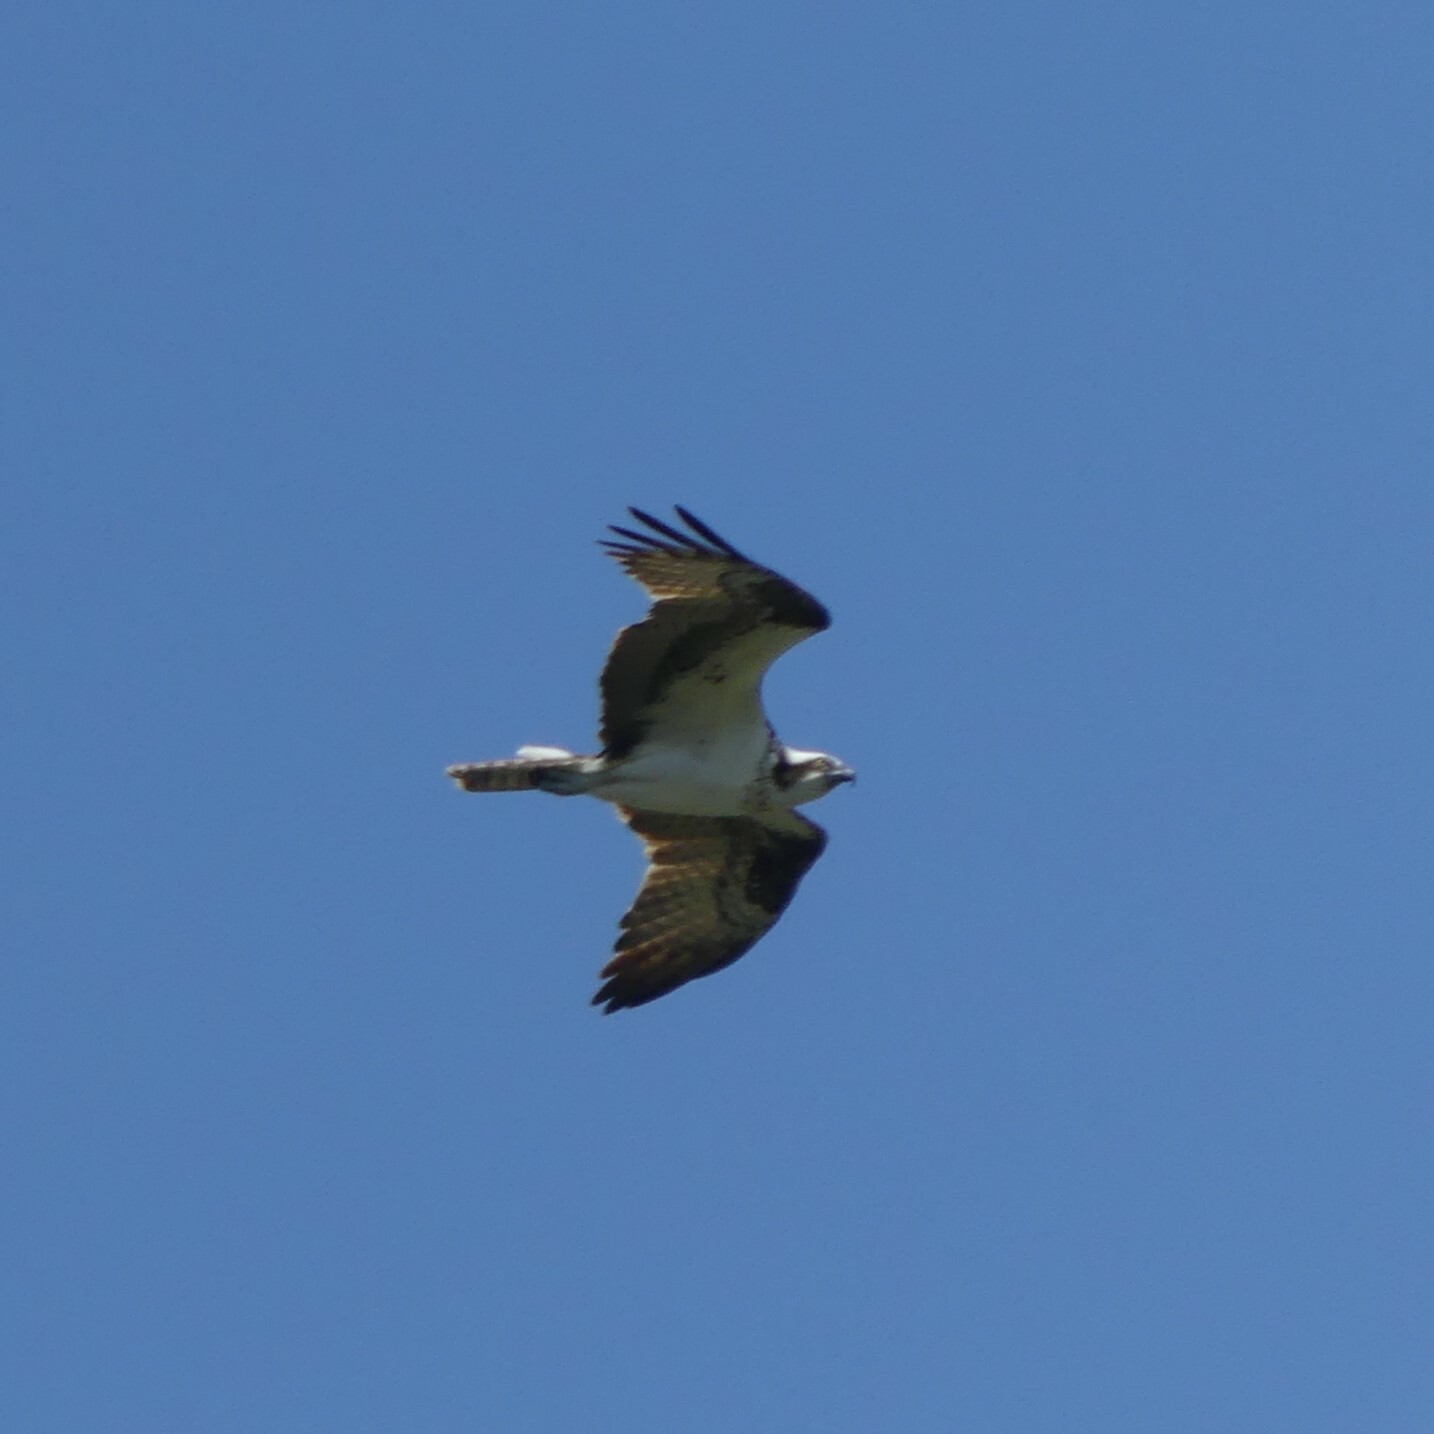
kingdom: Animalia
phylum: Chordata
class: Aves
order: Accipitriformes
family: Pandionidae
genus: Pandion
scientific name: Pandion haliaetus
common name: Osprey
